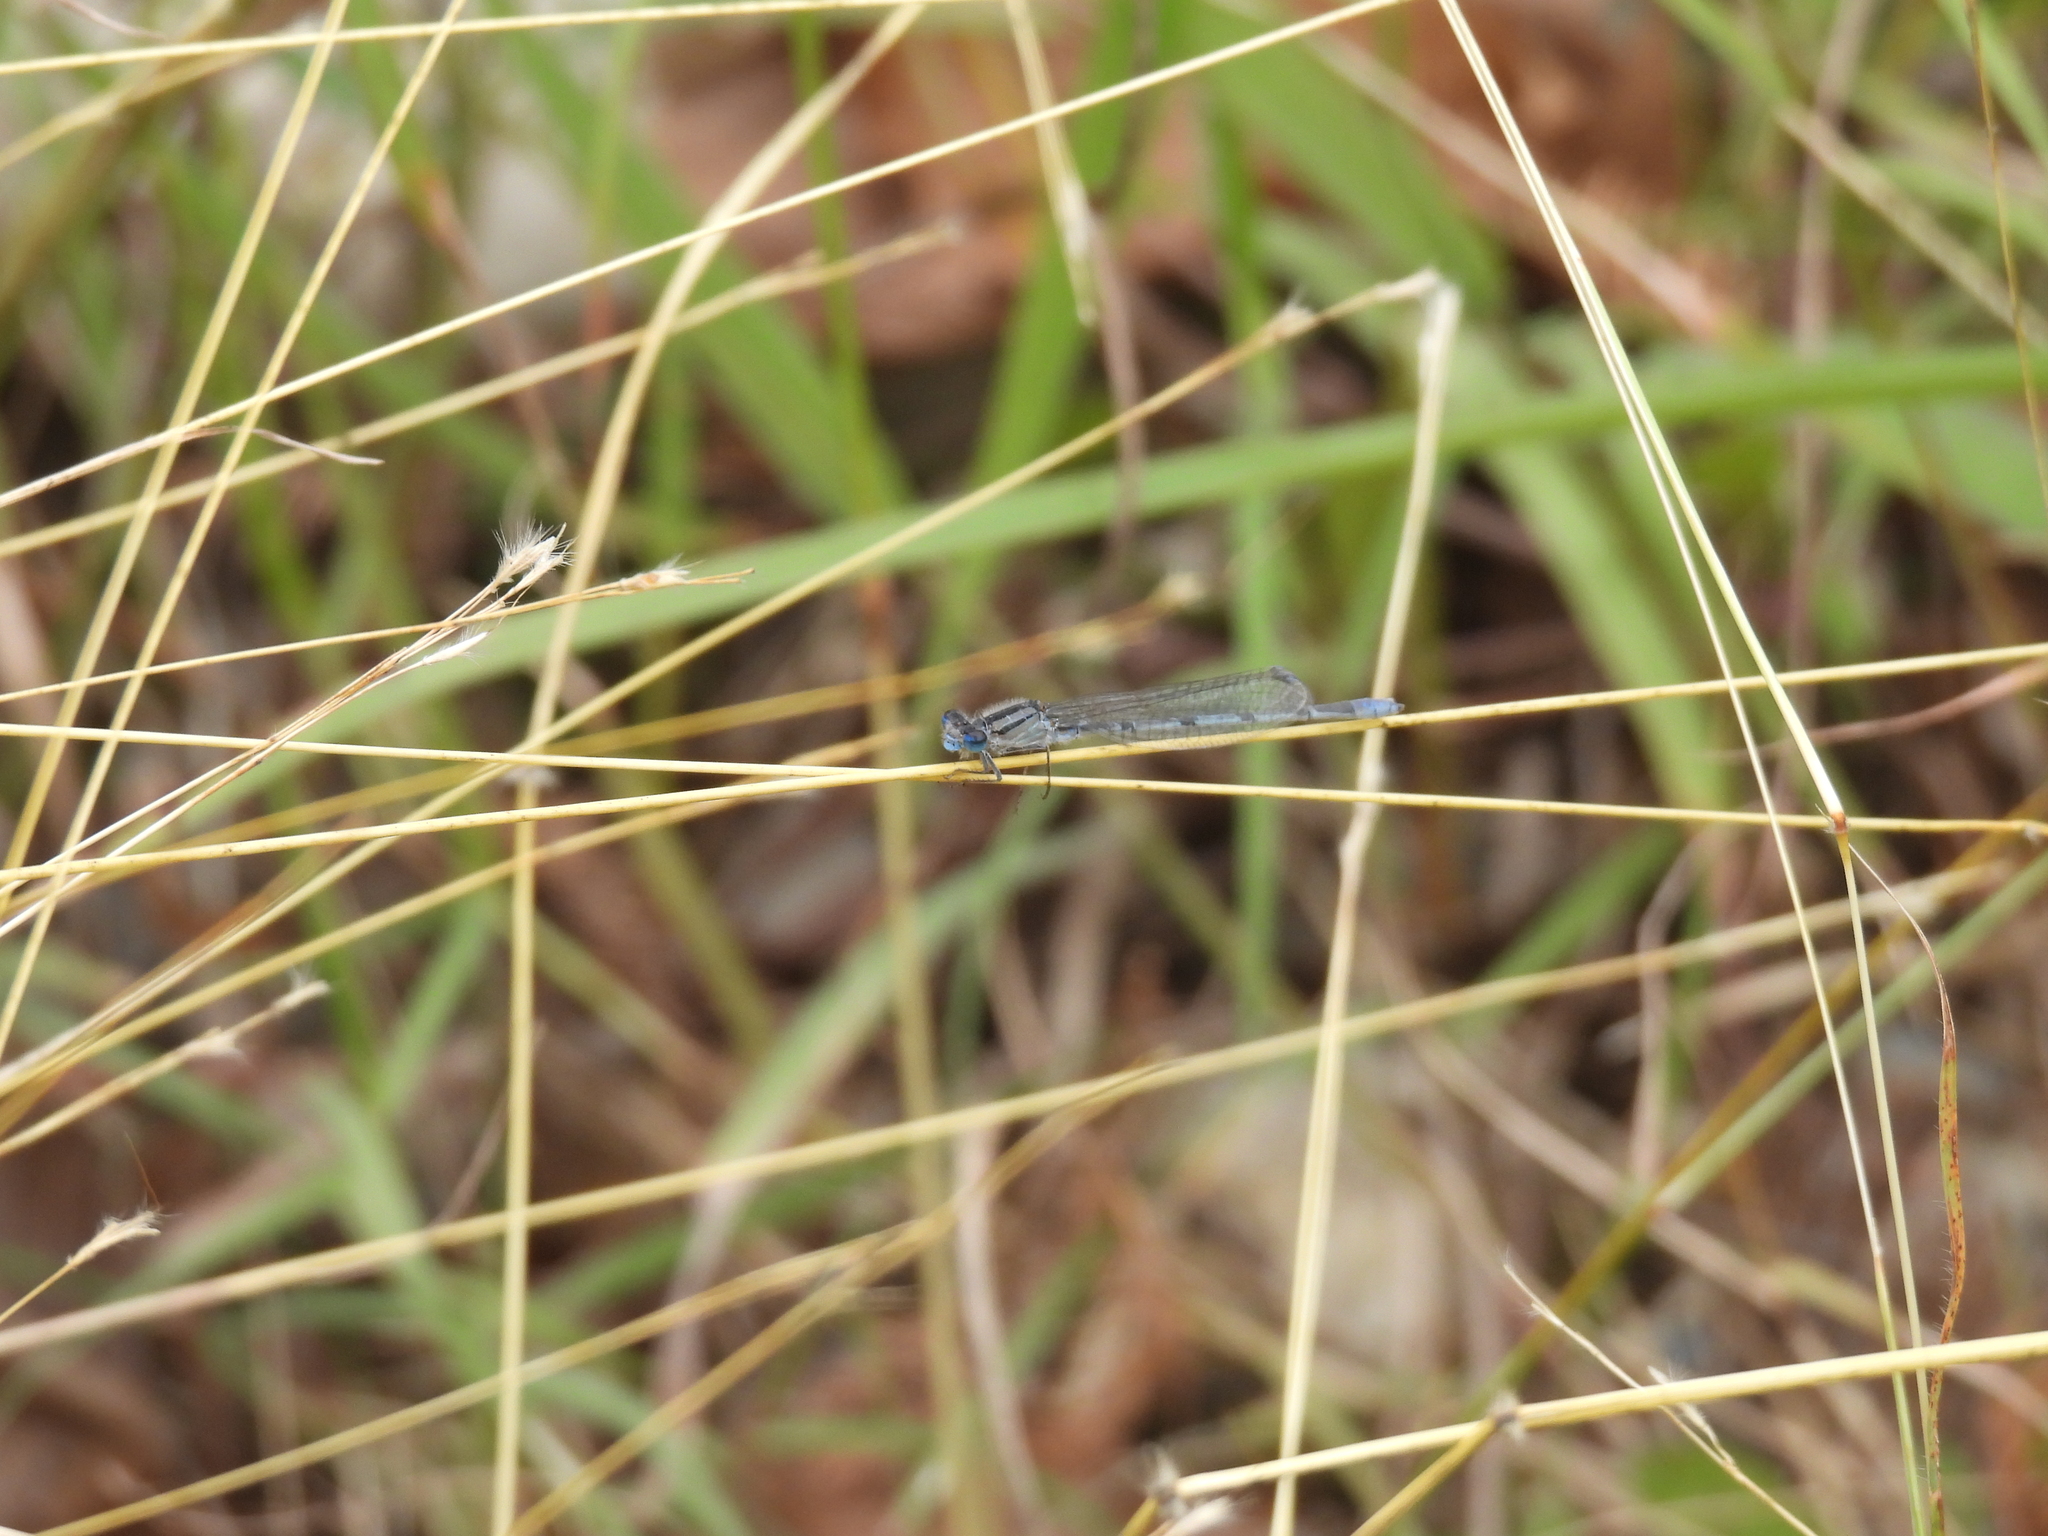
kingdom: Animalia
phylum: Arthropoda
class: Insecta
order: Odonata
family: Coenagrionidae
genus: Enallagma
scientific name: Enallagma civile
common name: Damselfly
